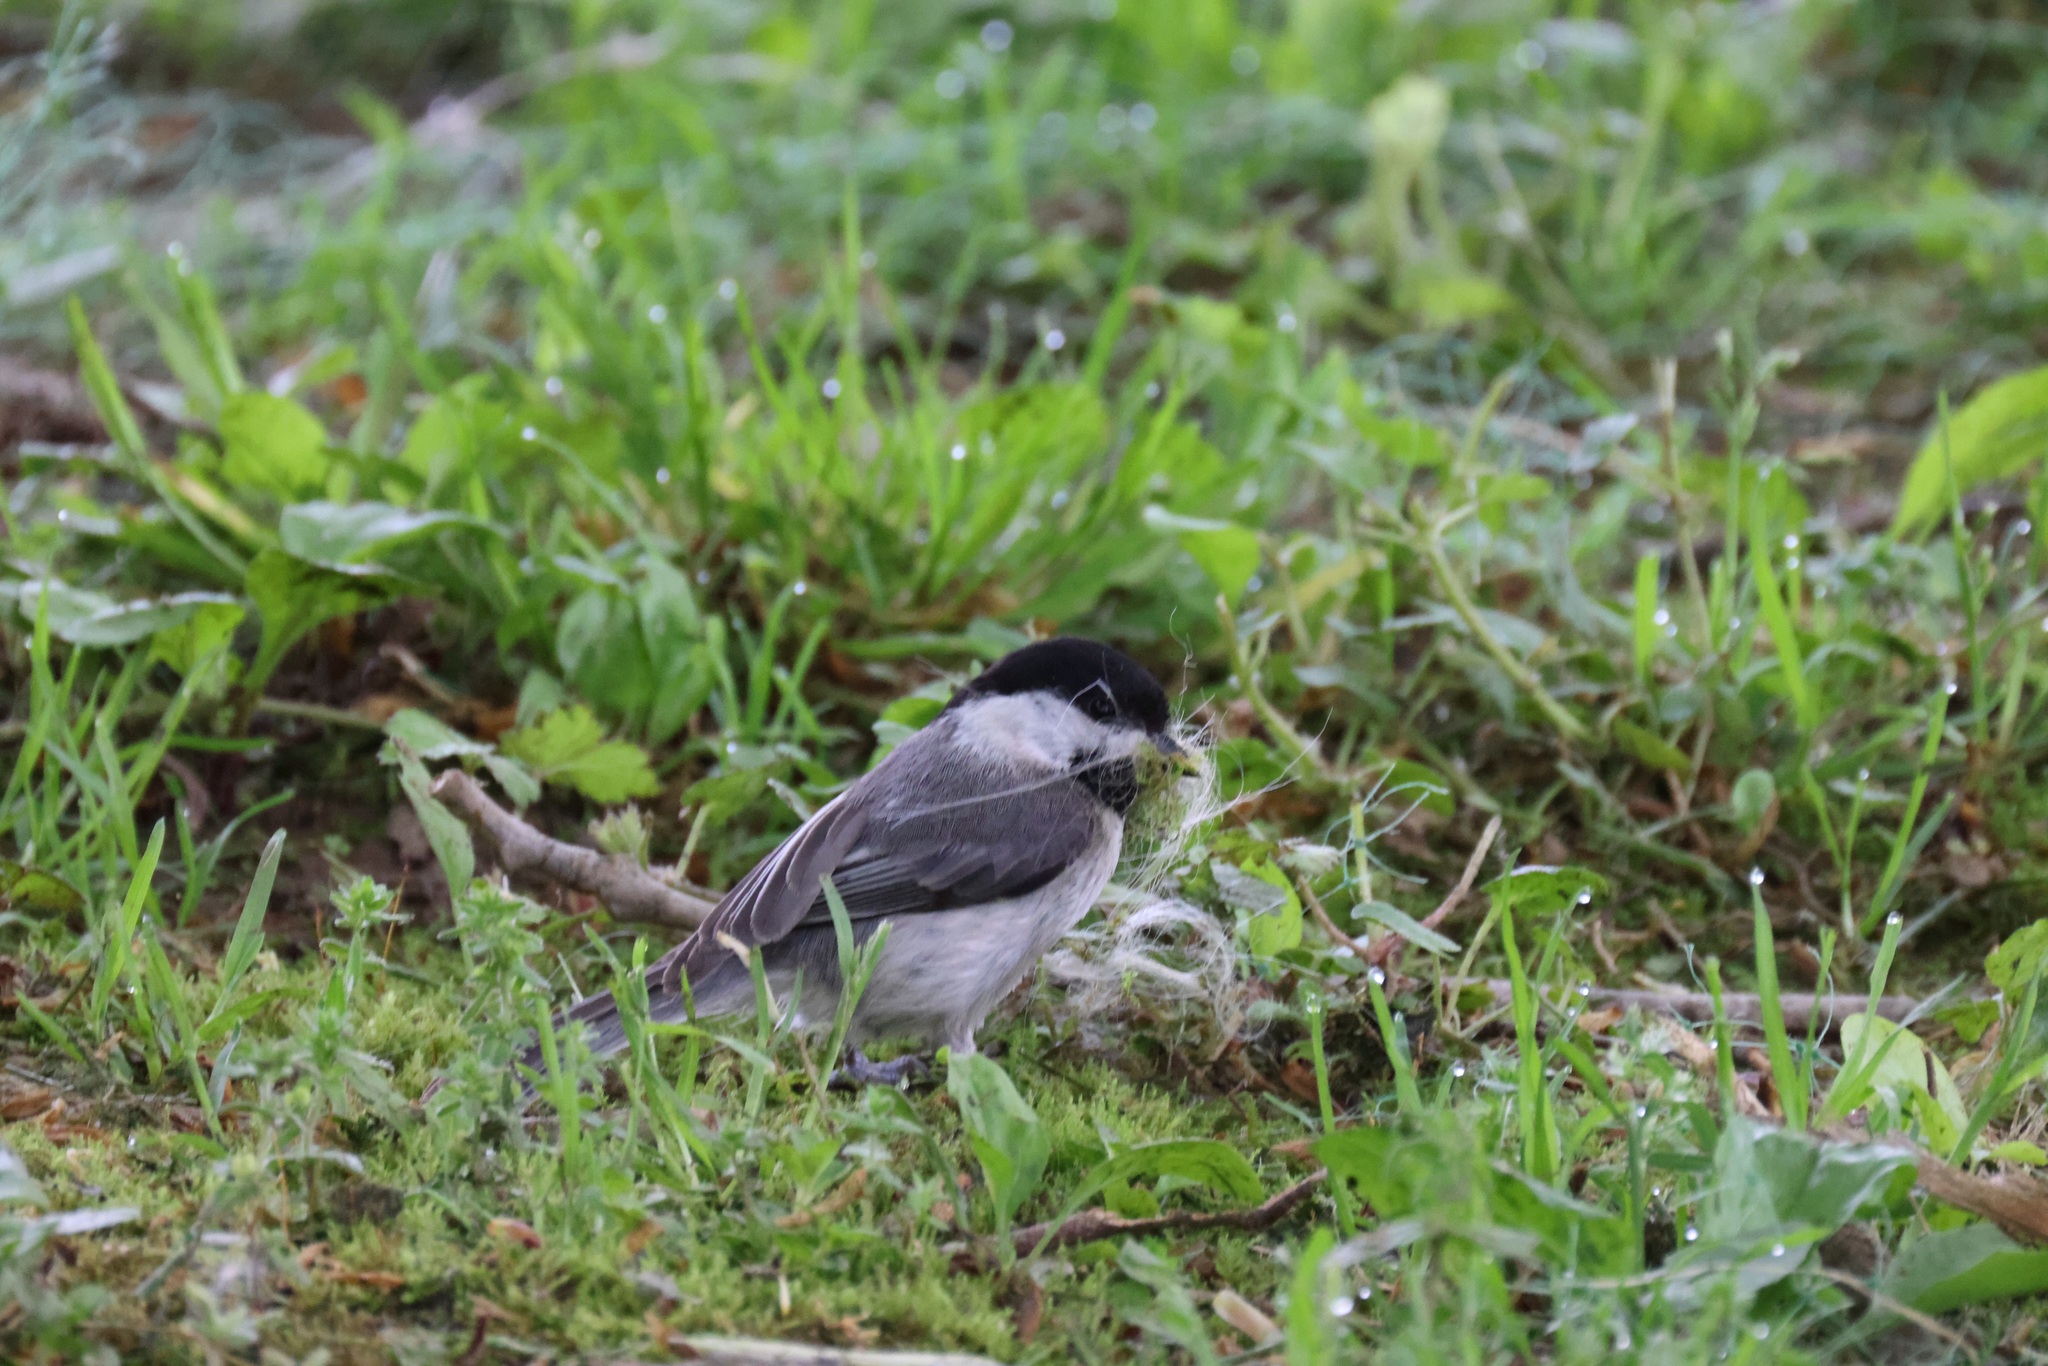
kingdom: Animalia
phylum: Chordata
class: Aves
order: Passeriformes
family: Paridae
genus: Poecile
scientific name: Poecile carolinensis
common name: Carolina chickadee
